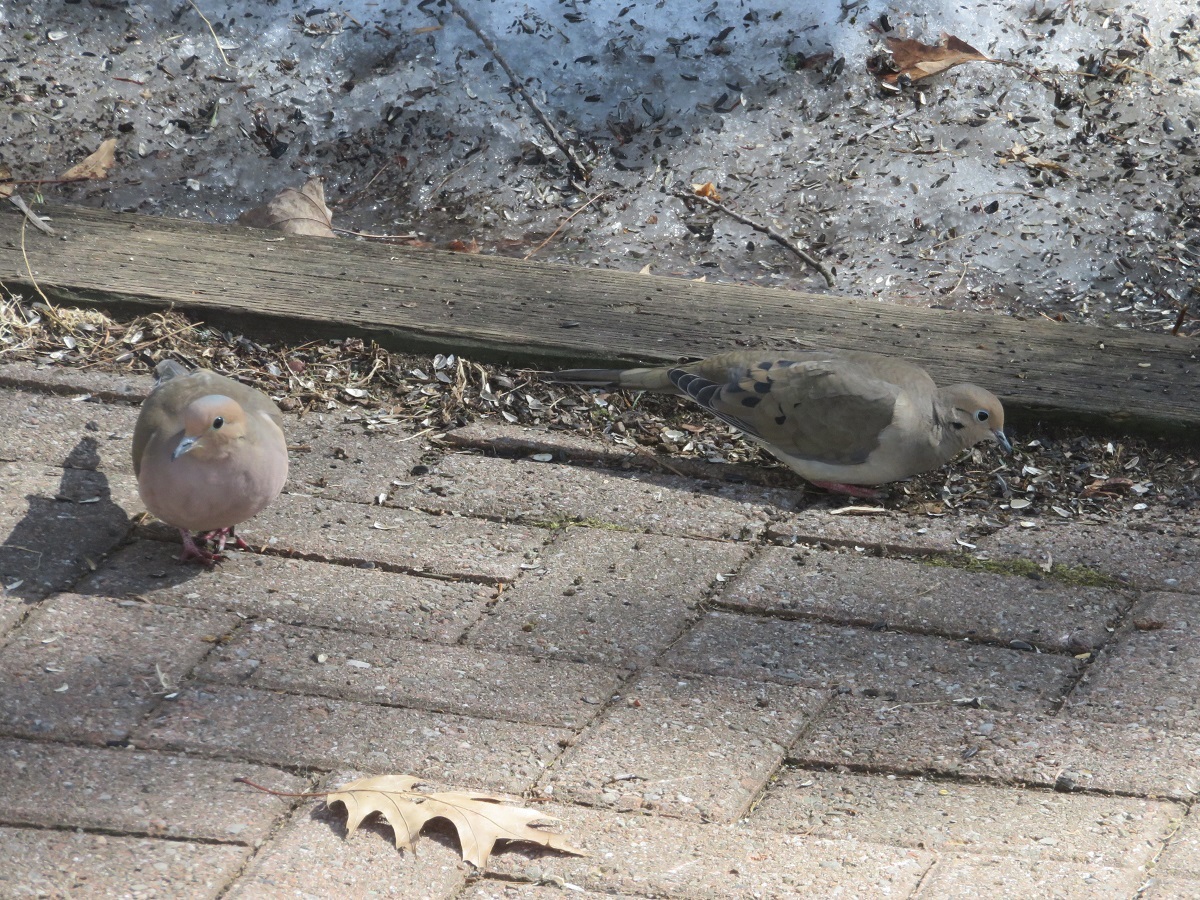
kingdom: Animalia
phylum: Chordata
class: Aves
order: Columbiformes
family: Columbidae
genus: Zenaida
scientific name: Zenaida macroura
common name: Mourning dove
